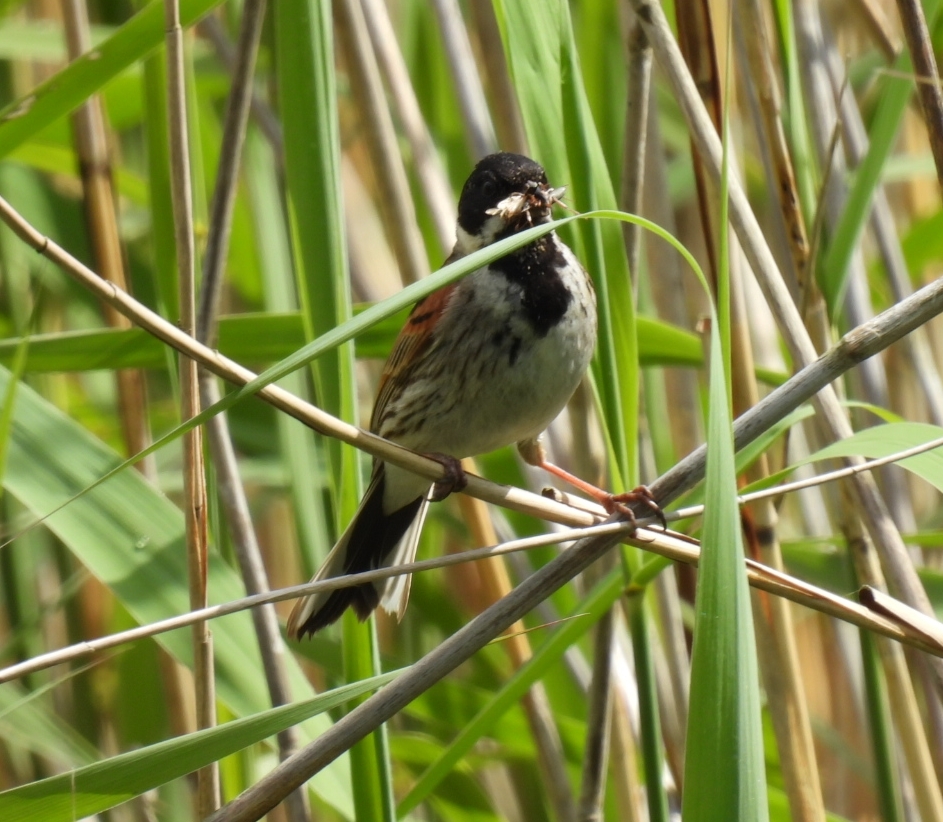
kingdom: Animalia
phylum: Chordata
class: Aves
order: Passeriformes
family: Emberizidae
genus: Emberiza
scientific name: Emberiza schoeniclus
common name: Reed bunting
